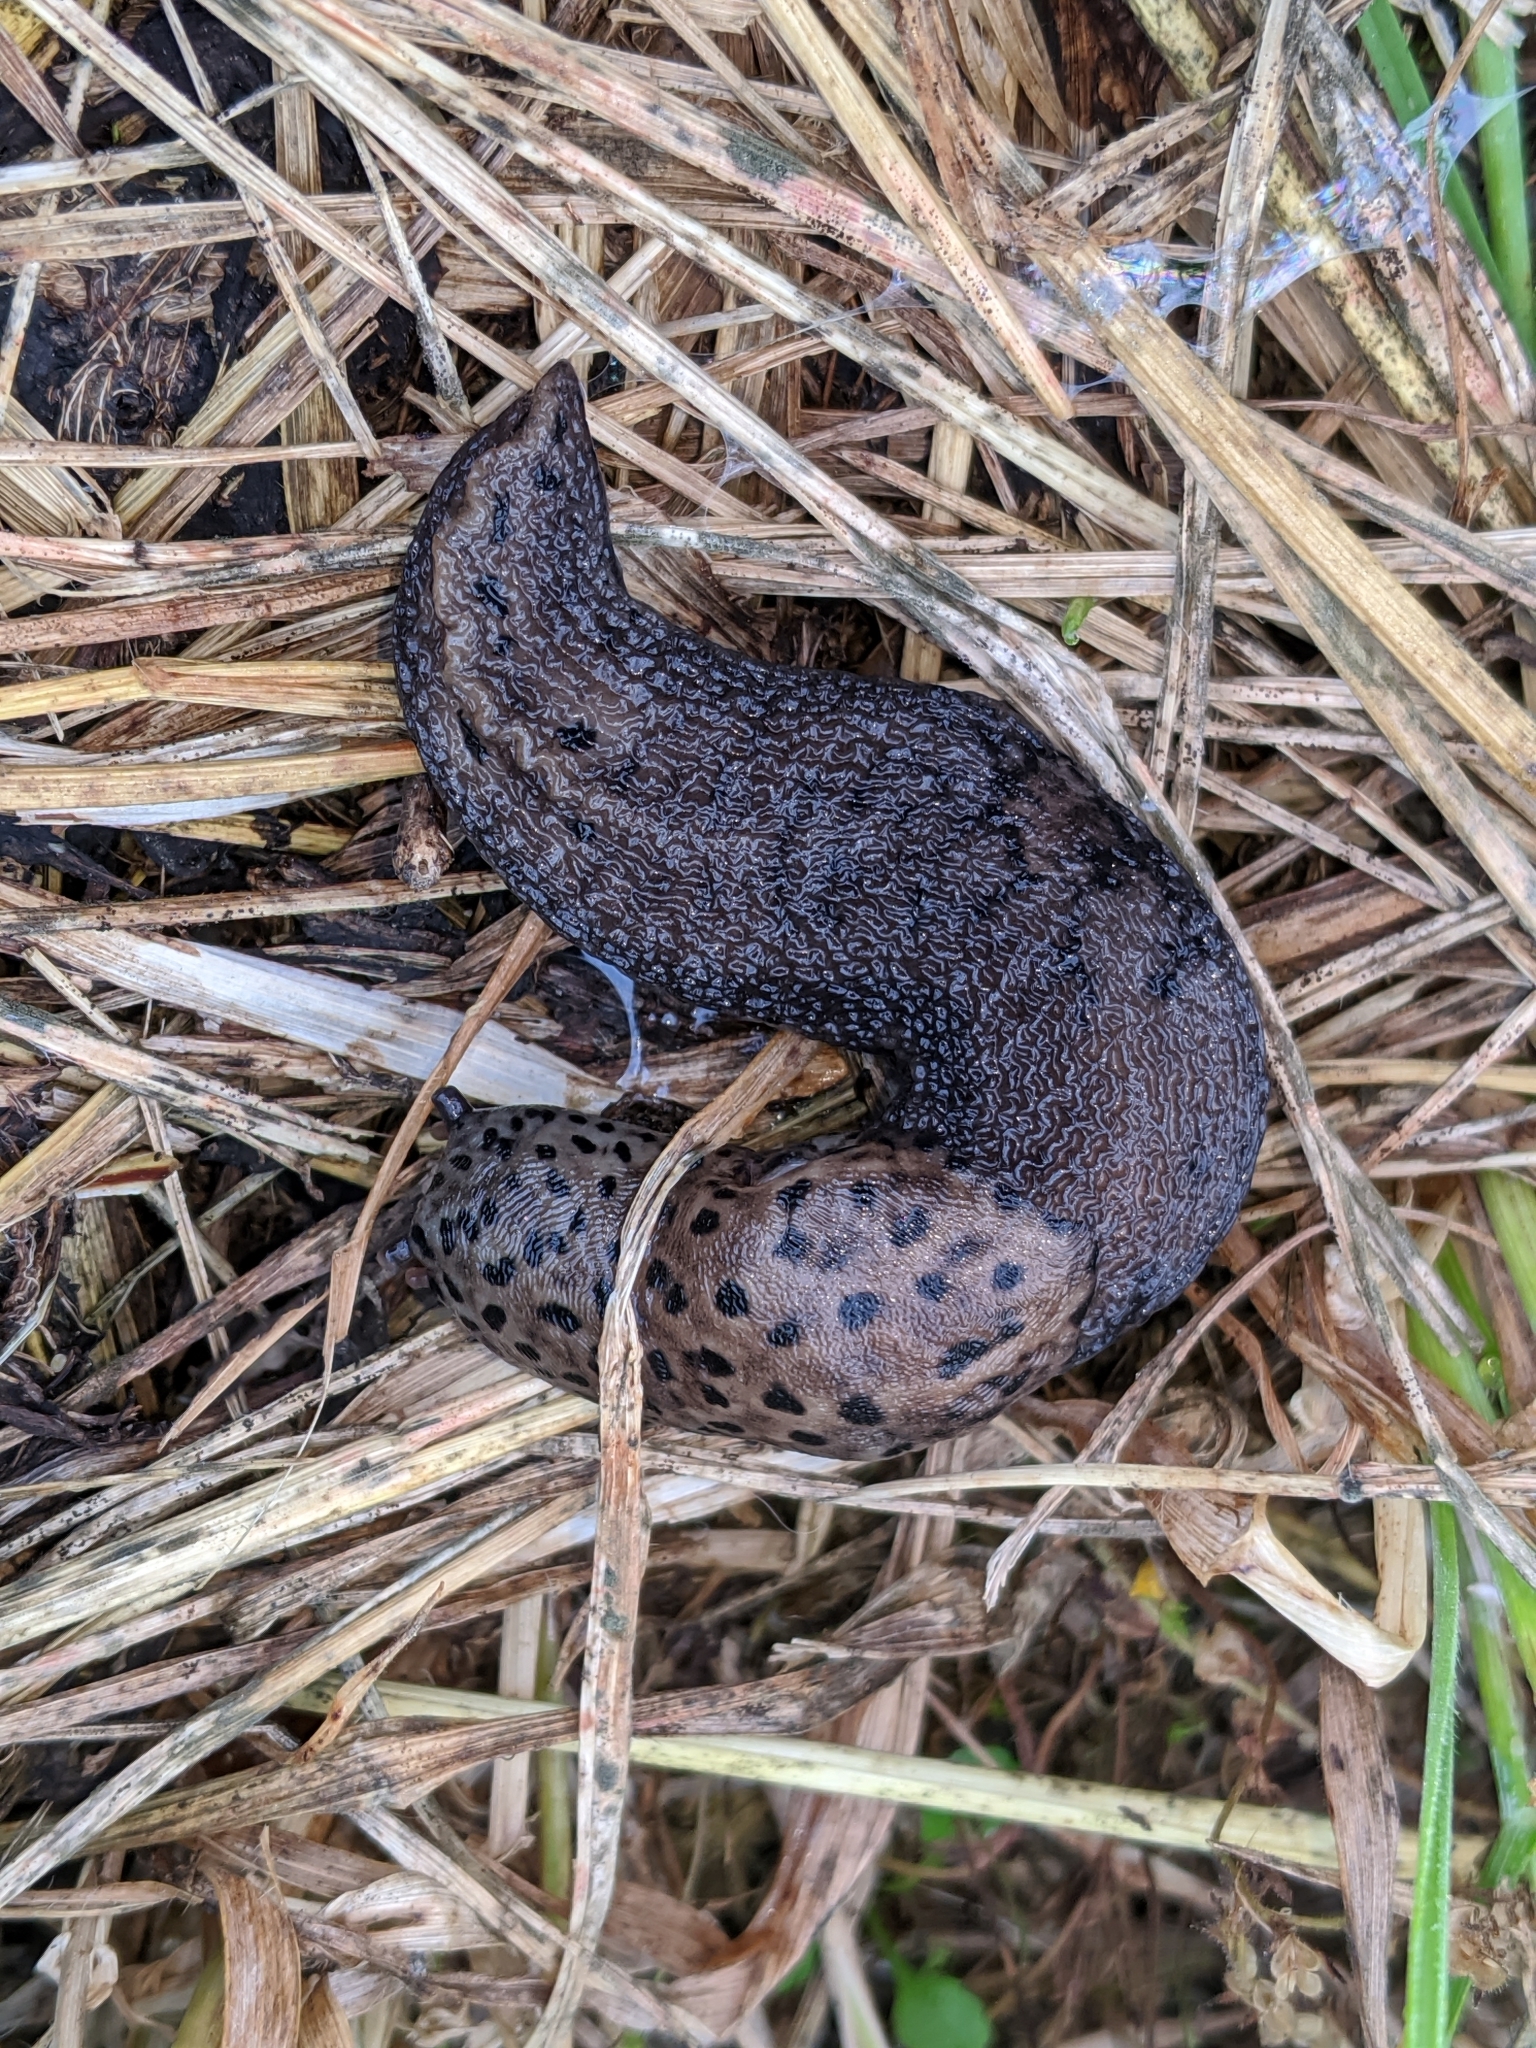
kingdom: Animalia
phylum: Mollusca
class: Gastropoda
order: Stylommatophora
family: Limacidae
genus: Limax
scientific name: Limax maximus
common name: Great grey slug
